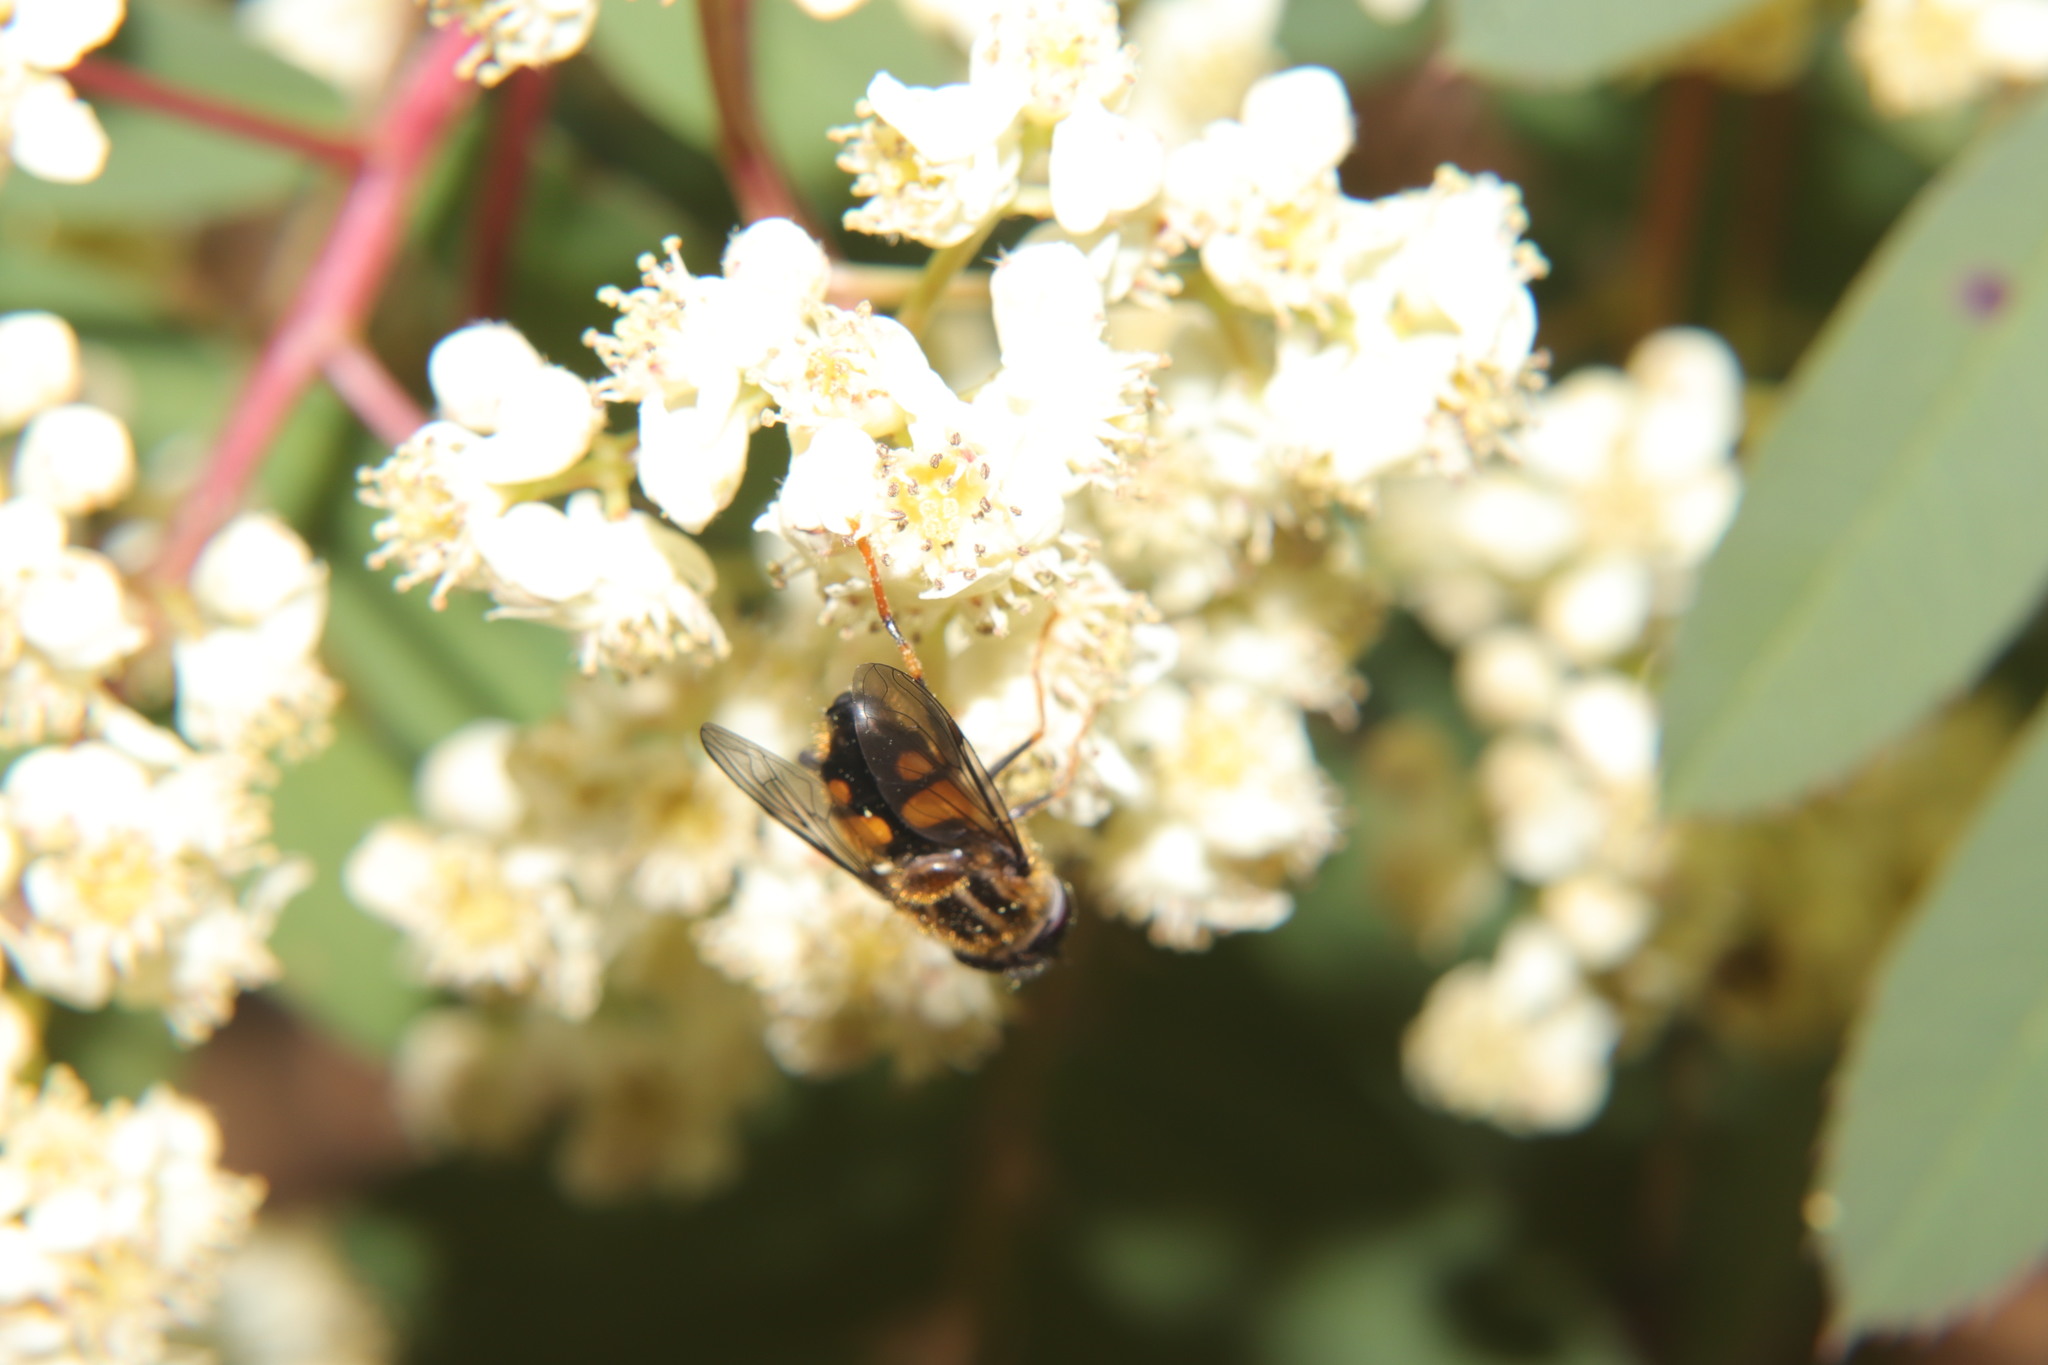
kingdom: Animalia
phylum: Arthropoda
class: Insecta
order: Diptera
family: Syrphidae
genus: Helophilus
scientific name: Helophilus antipodus
